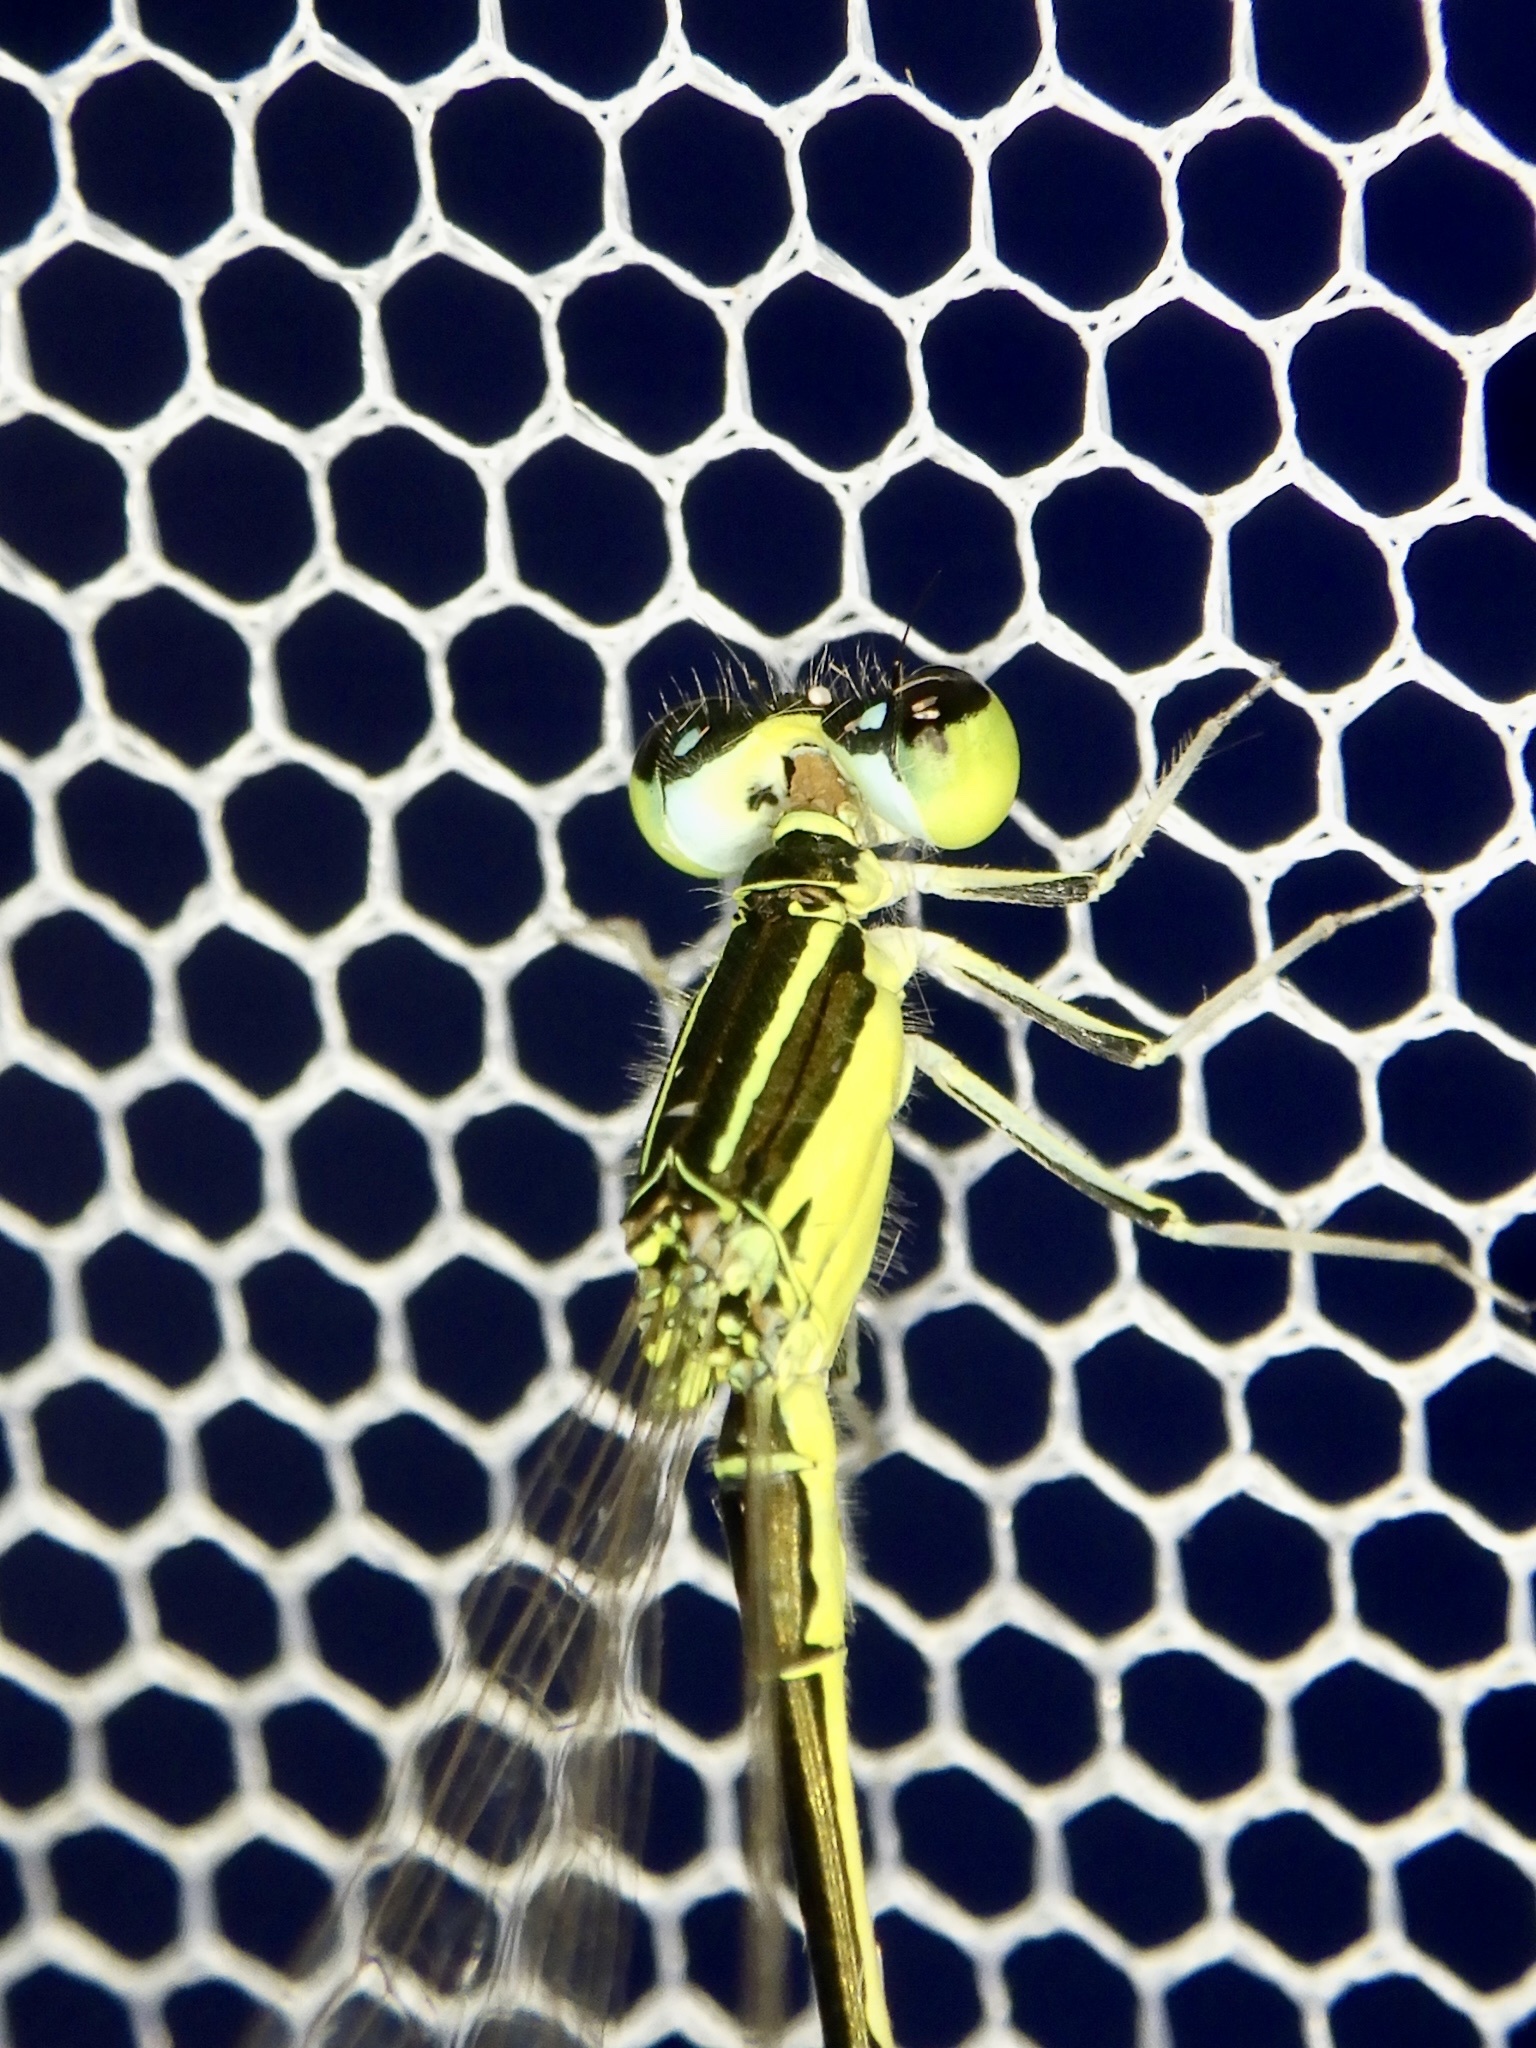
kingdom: Animalia
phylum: Arthropoda
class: Insecta
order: Odonata
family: Coenagrionidae
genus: Ischnura
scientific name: Ischnura senegalensis
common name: Tropical bluetail
